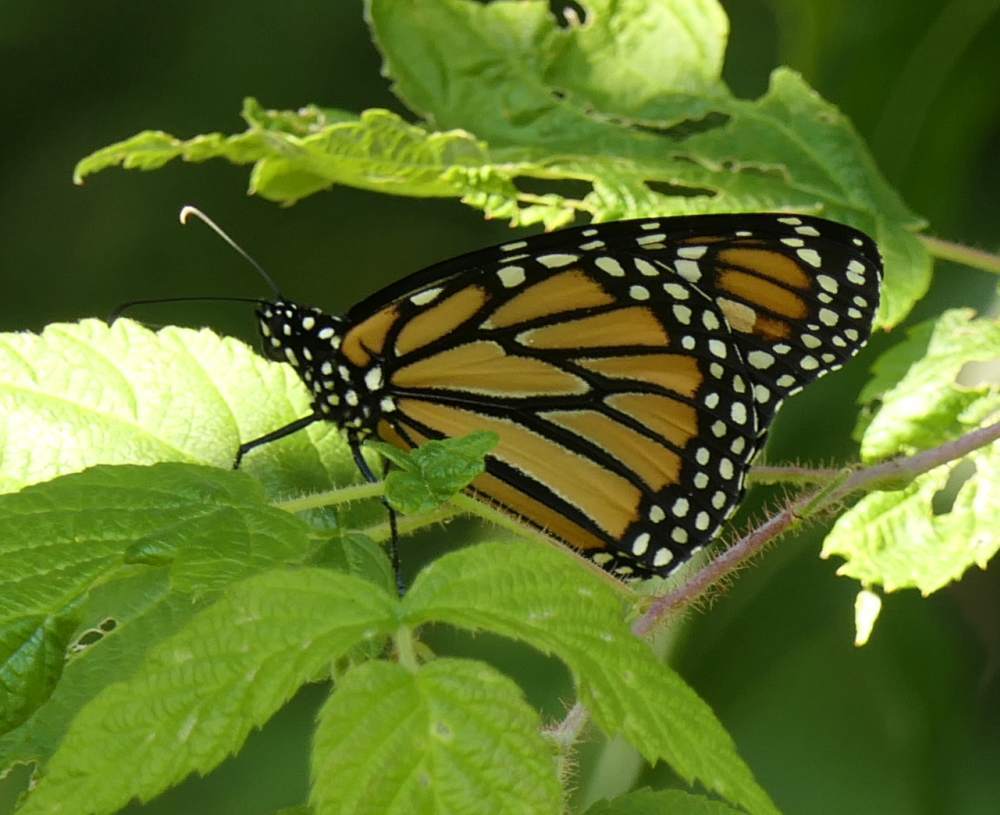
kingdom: Animalia
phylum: Arthropoda
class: Insecta
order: Lepidoptera
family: Nymphalidae
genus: Danaus
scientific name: Danaus plexippus
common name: Monarch
